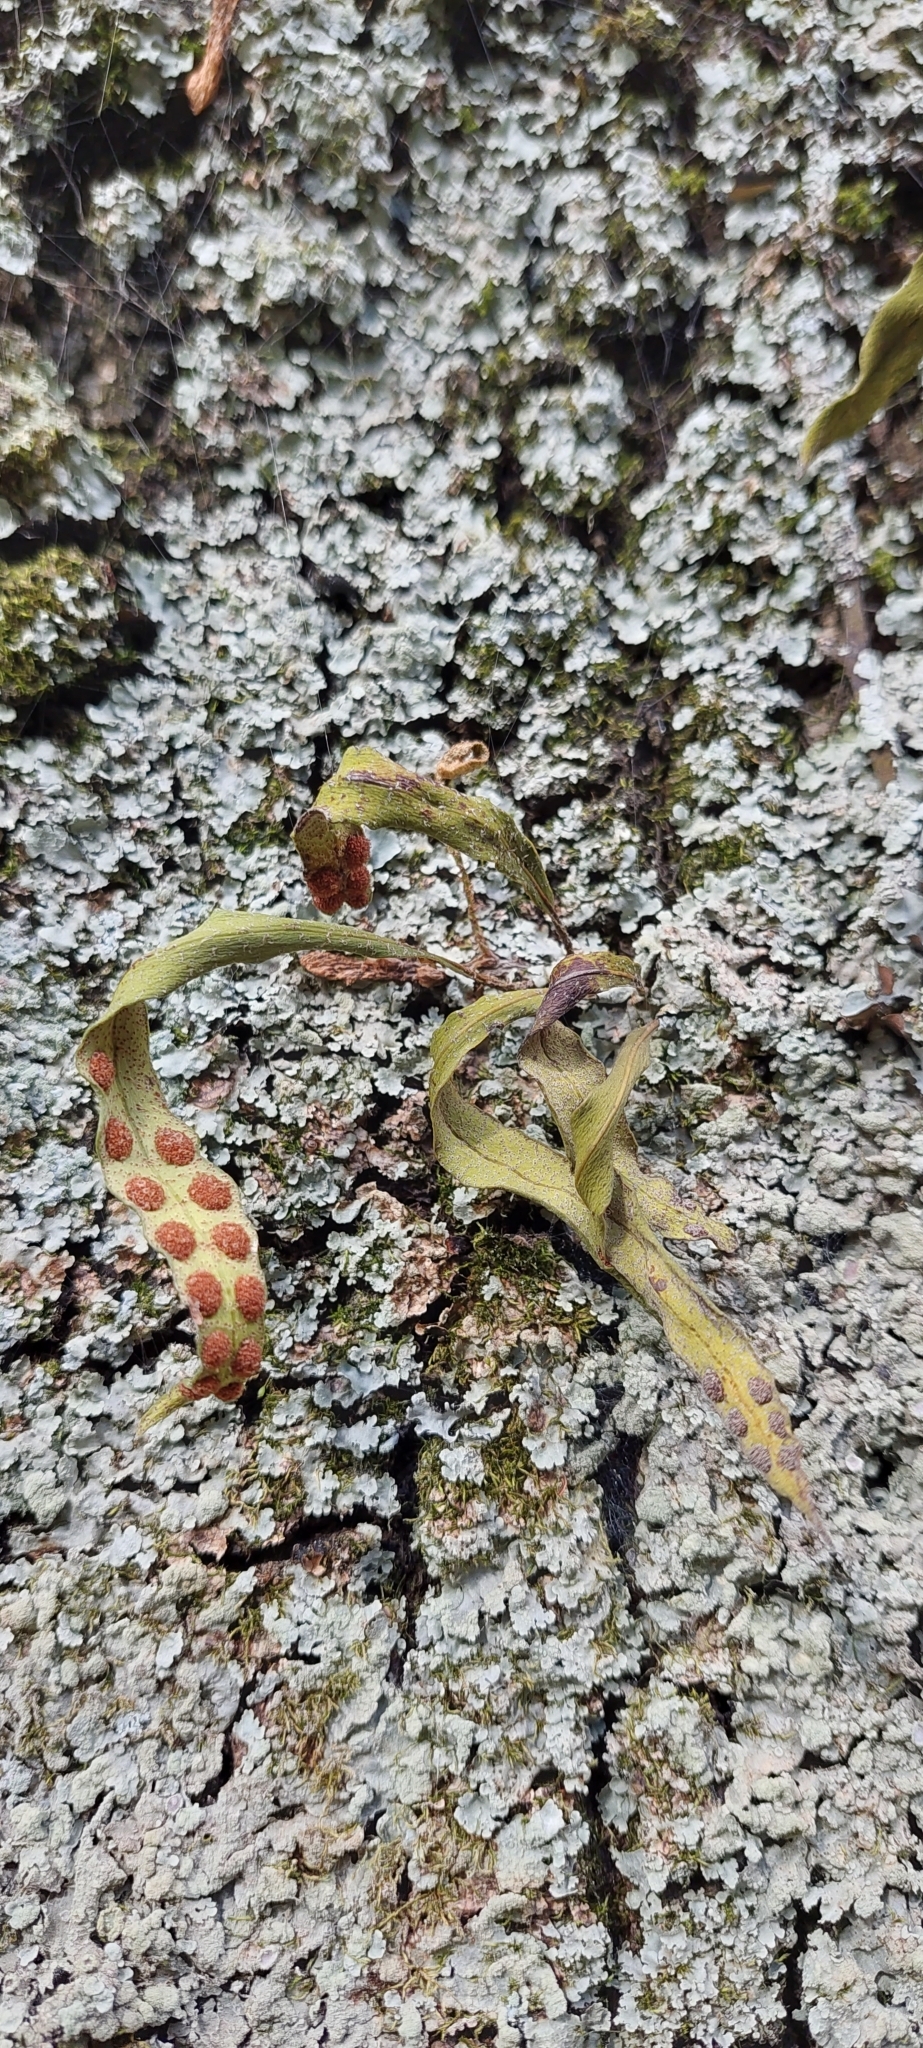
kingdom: Plantae
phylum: Tracheophyta
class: Polypodiopsida
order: Polypodiales
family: Polypodiaceae
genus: Pleopeltis
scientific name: Pleopeltis macrocarpa
